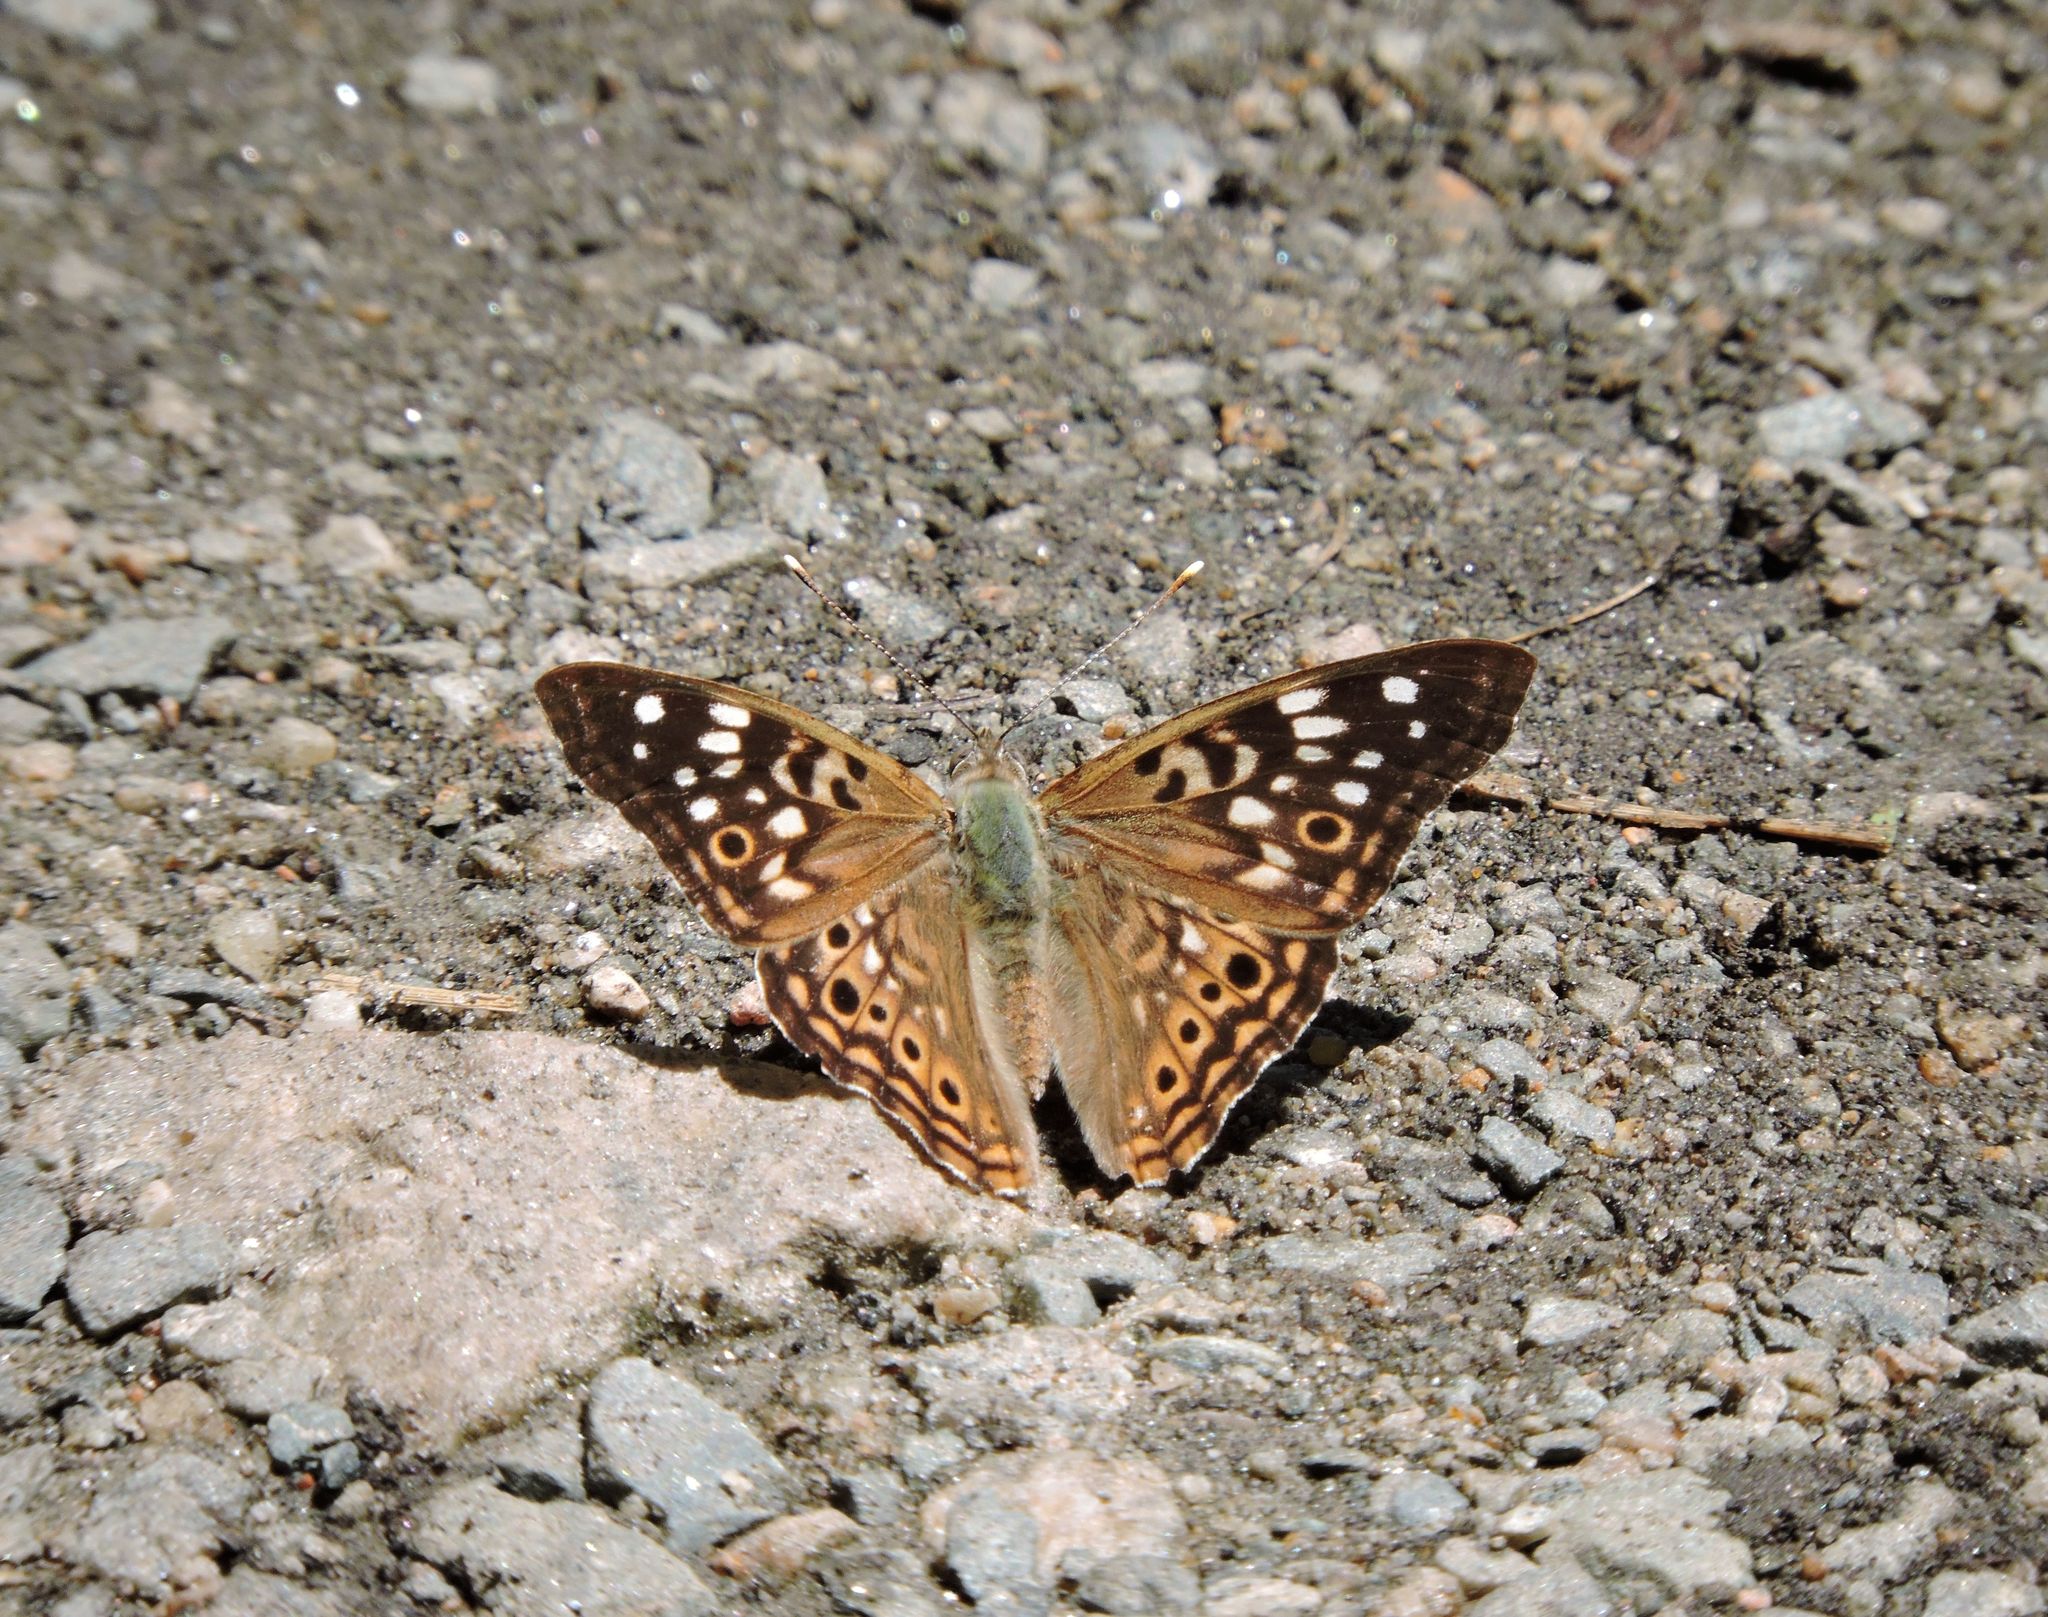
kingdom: Animalia
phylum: Arthropoda
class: Insecta
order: Lepidoptera
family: Nymphalidae
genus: Asterocampa
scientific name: Asterocampa celtis
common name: Hackberry emperor
